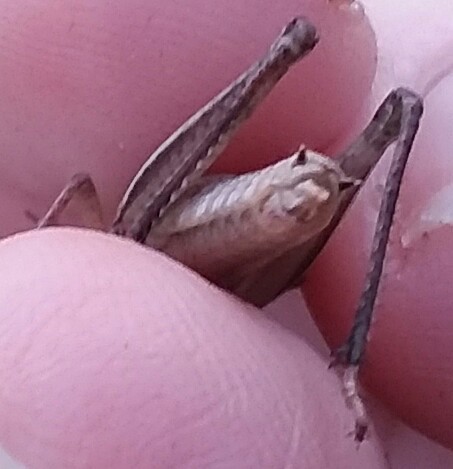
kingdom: Animalia
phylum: Arthropoda
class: Insecta
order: Orthoptera
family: Acrididae
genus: Dichromorpha
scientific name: Dichromorpha viridis
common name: Short-winged green grasshopper
